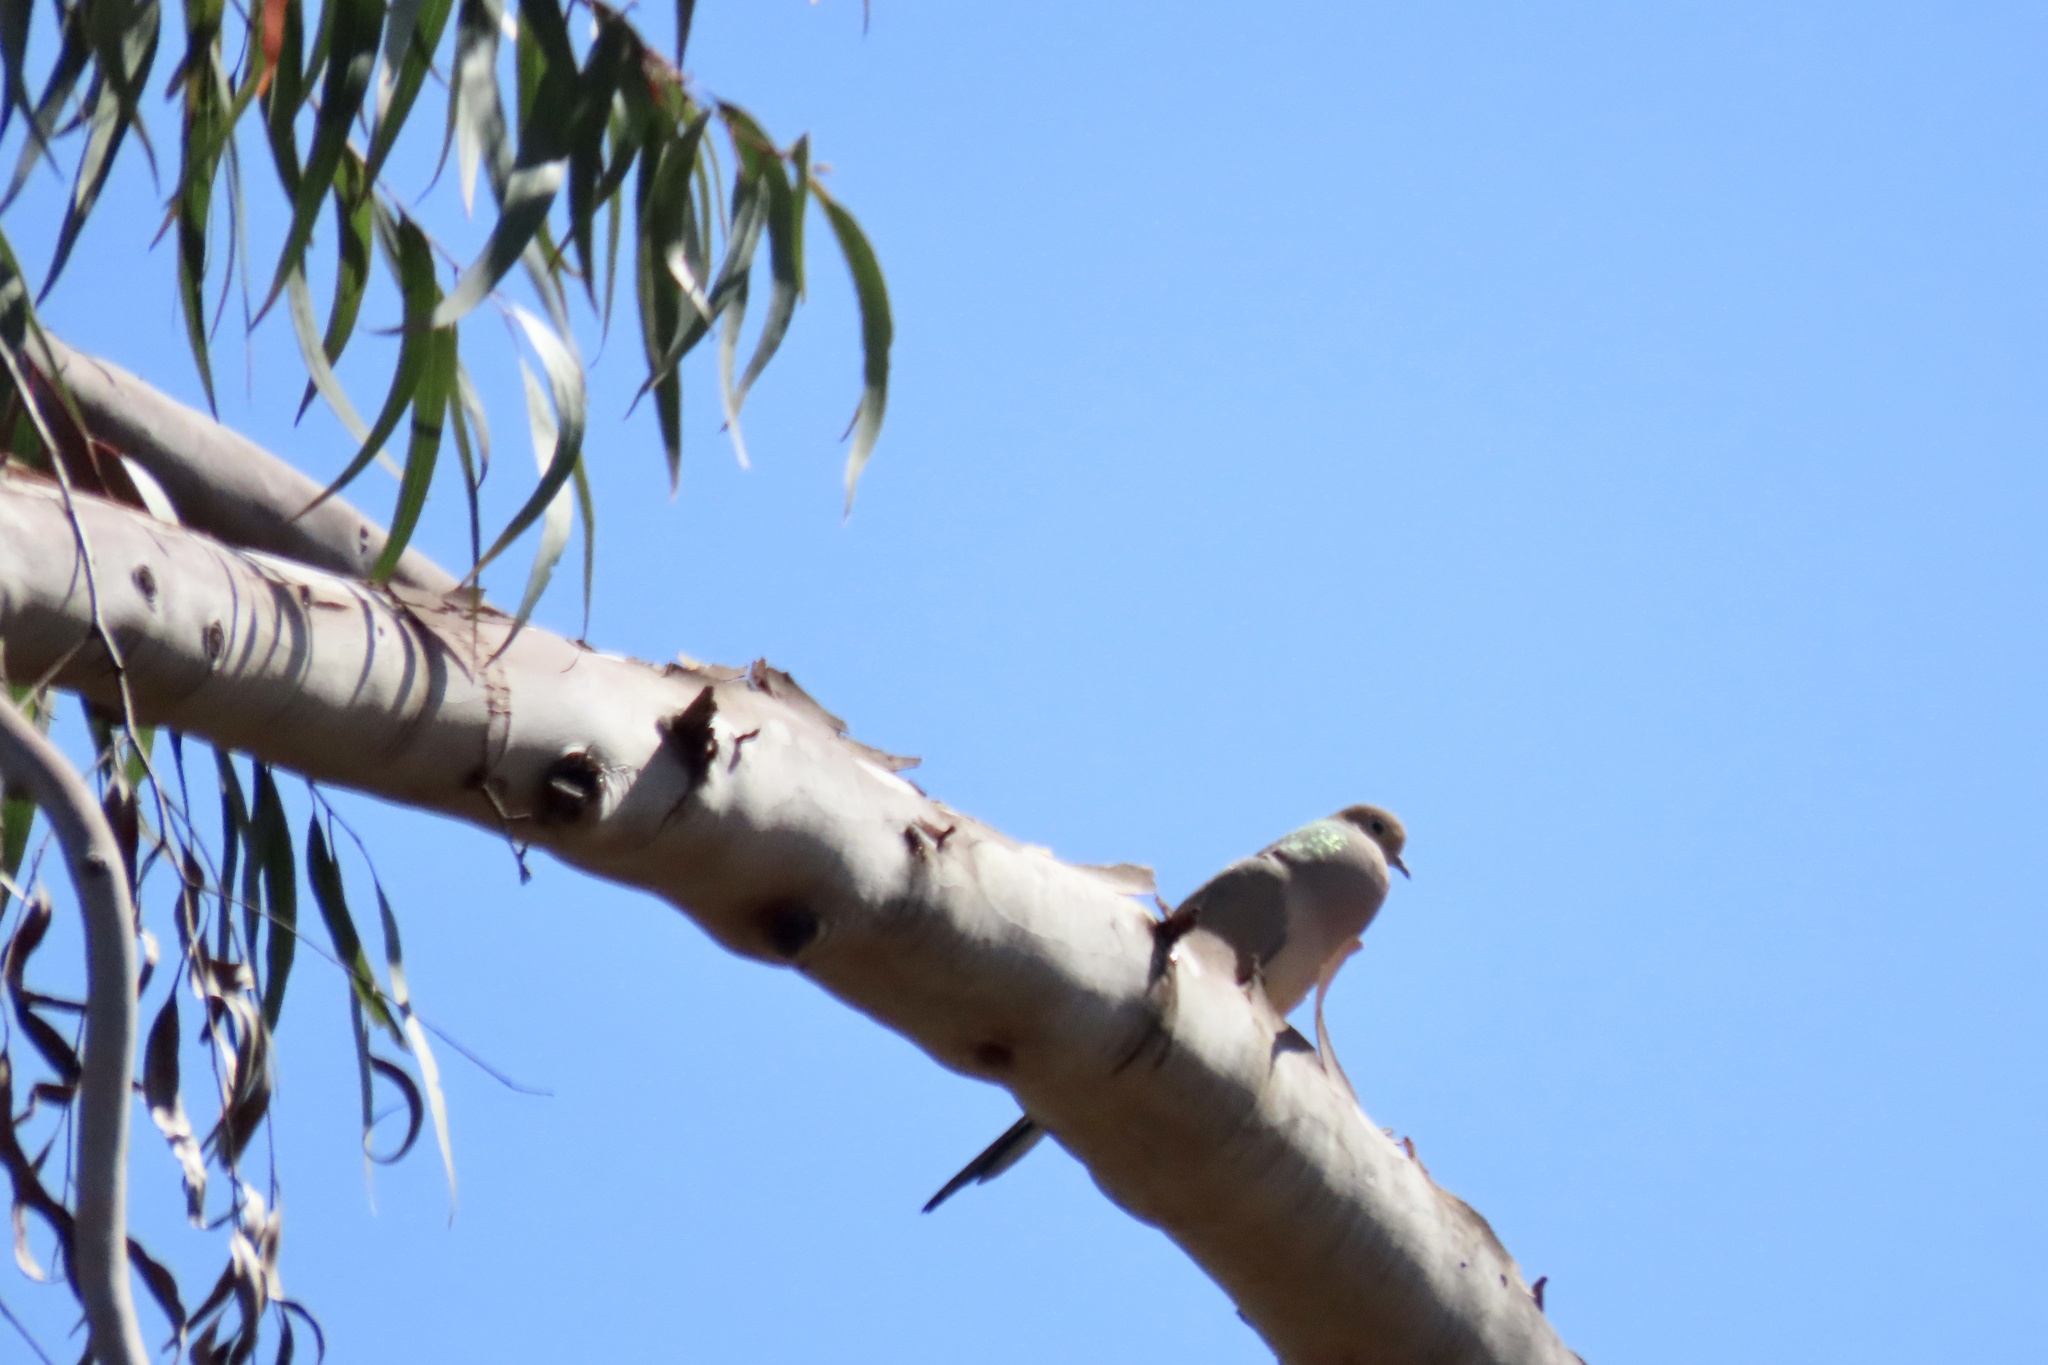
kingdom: Animalia
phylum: Chordata
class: Aves
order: Columbiformes
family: Columbidae
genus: Zenaida
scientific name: Zenaida macroura
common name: Mourning dove
